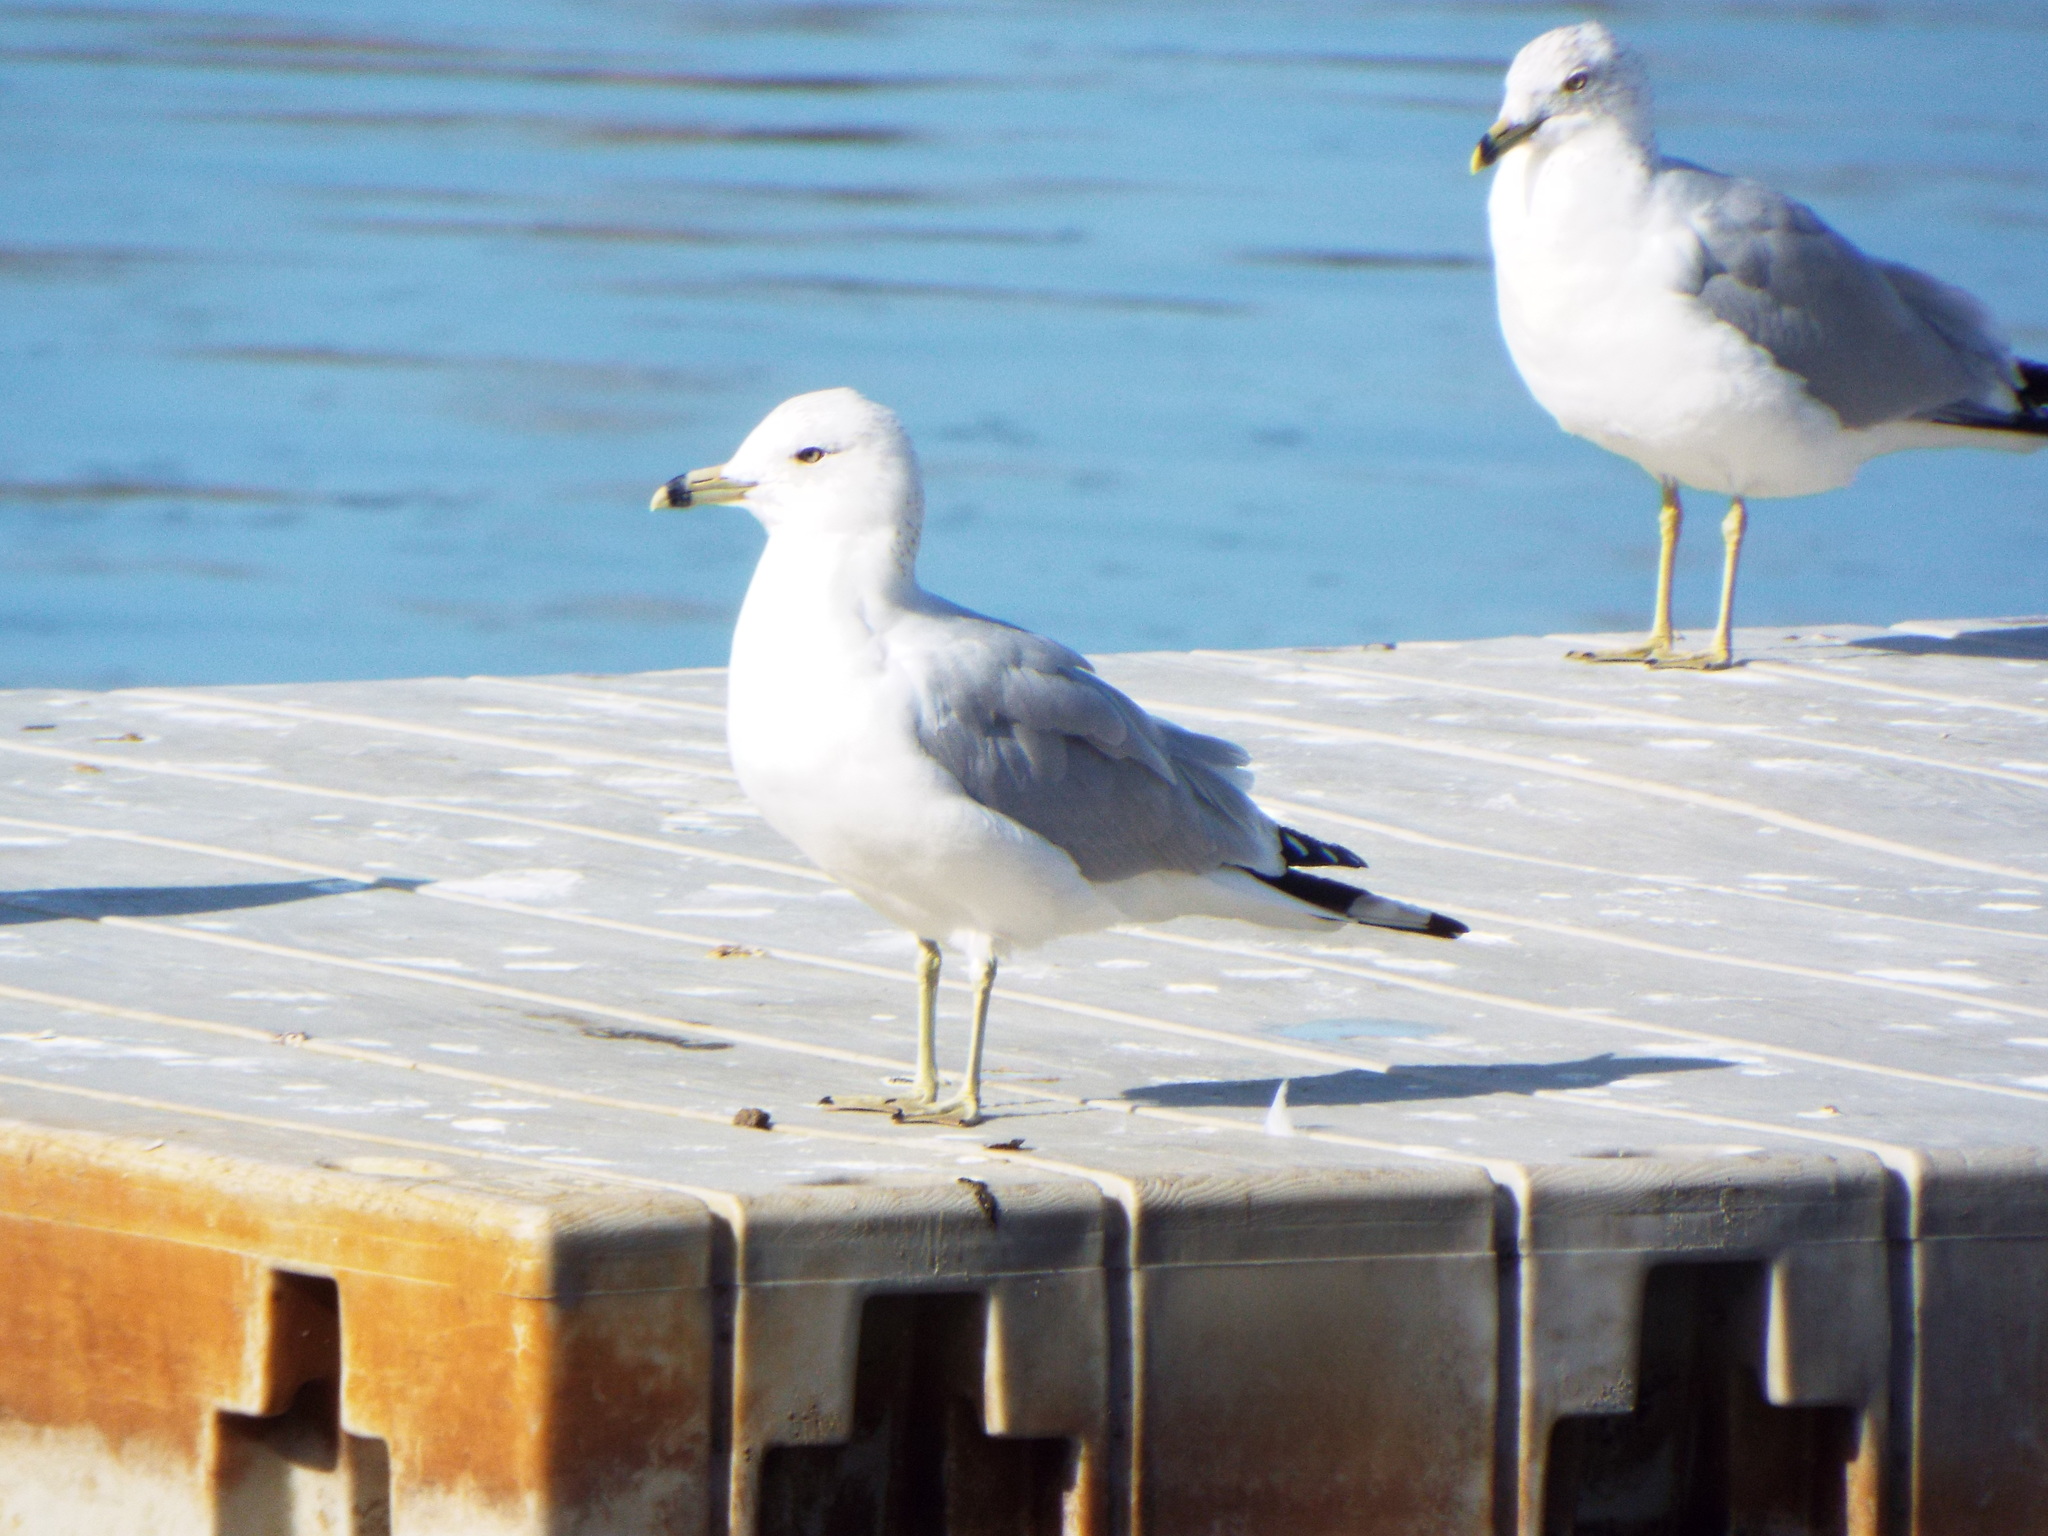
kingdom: Animalia
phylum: Chordata
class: Aves
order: Charadriiformes
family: Laridae
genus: Larus
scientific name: Larus delawarensis
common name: Ring-billed gull
